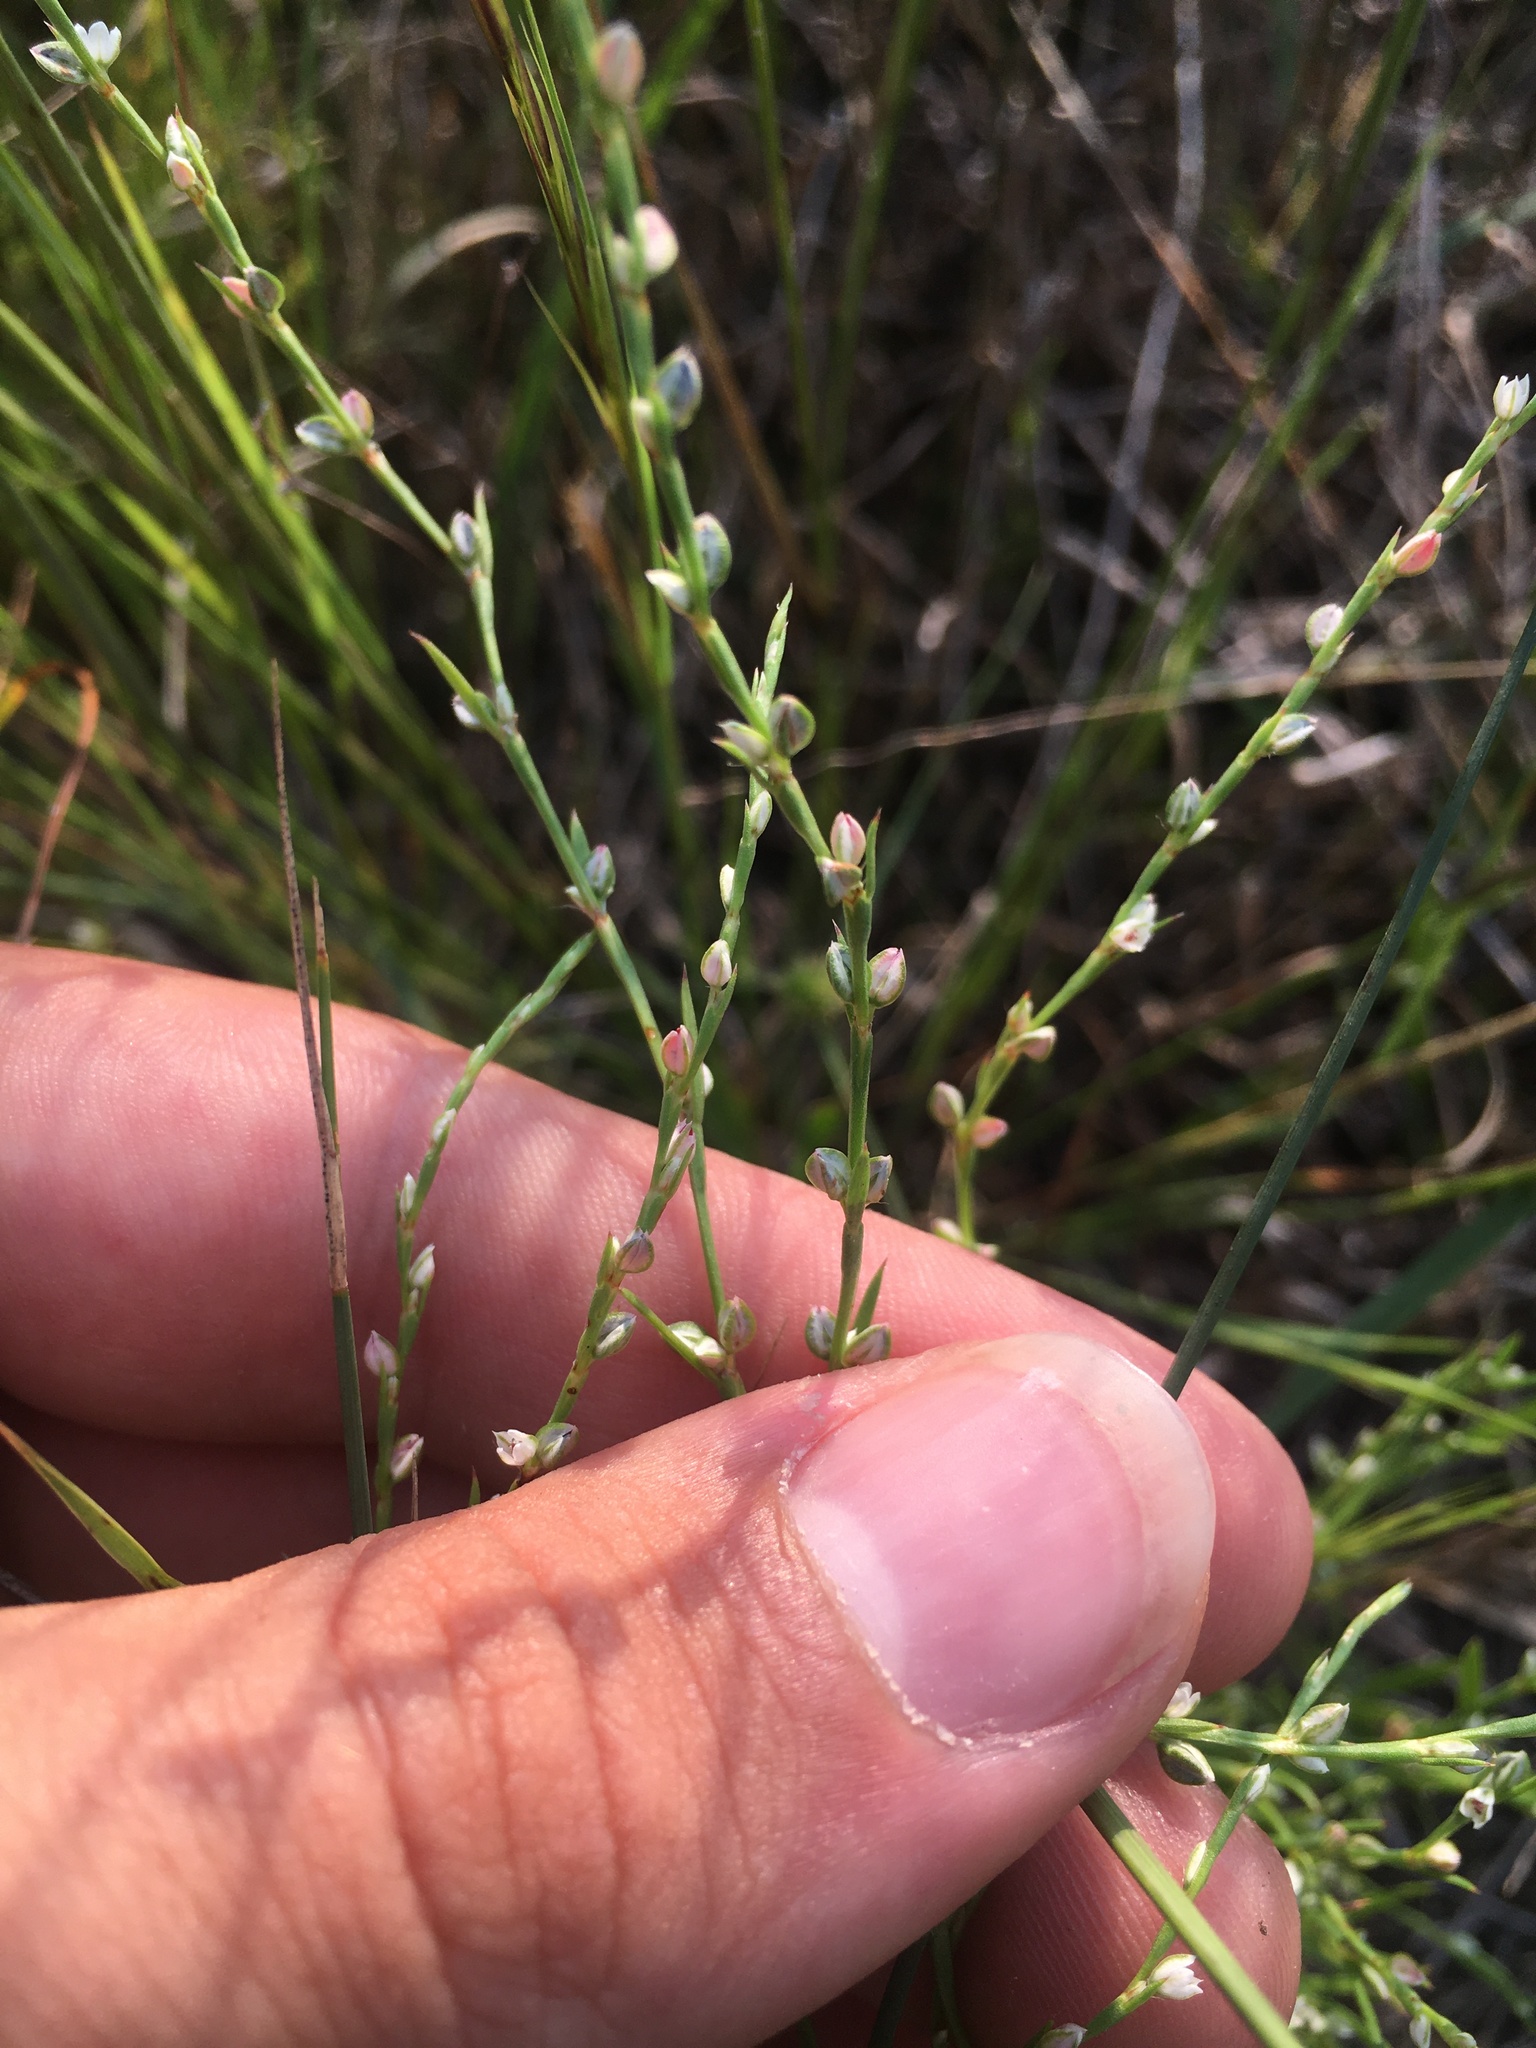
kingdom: Plantae
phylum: Tracheophyta
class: Magnoliopsida
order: Caryophyllales
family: Polygonaceae
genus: Polygonum
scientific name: Polygonum tenue
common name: Pleat-leaved knotweed
